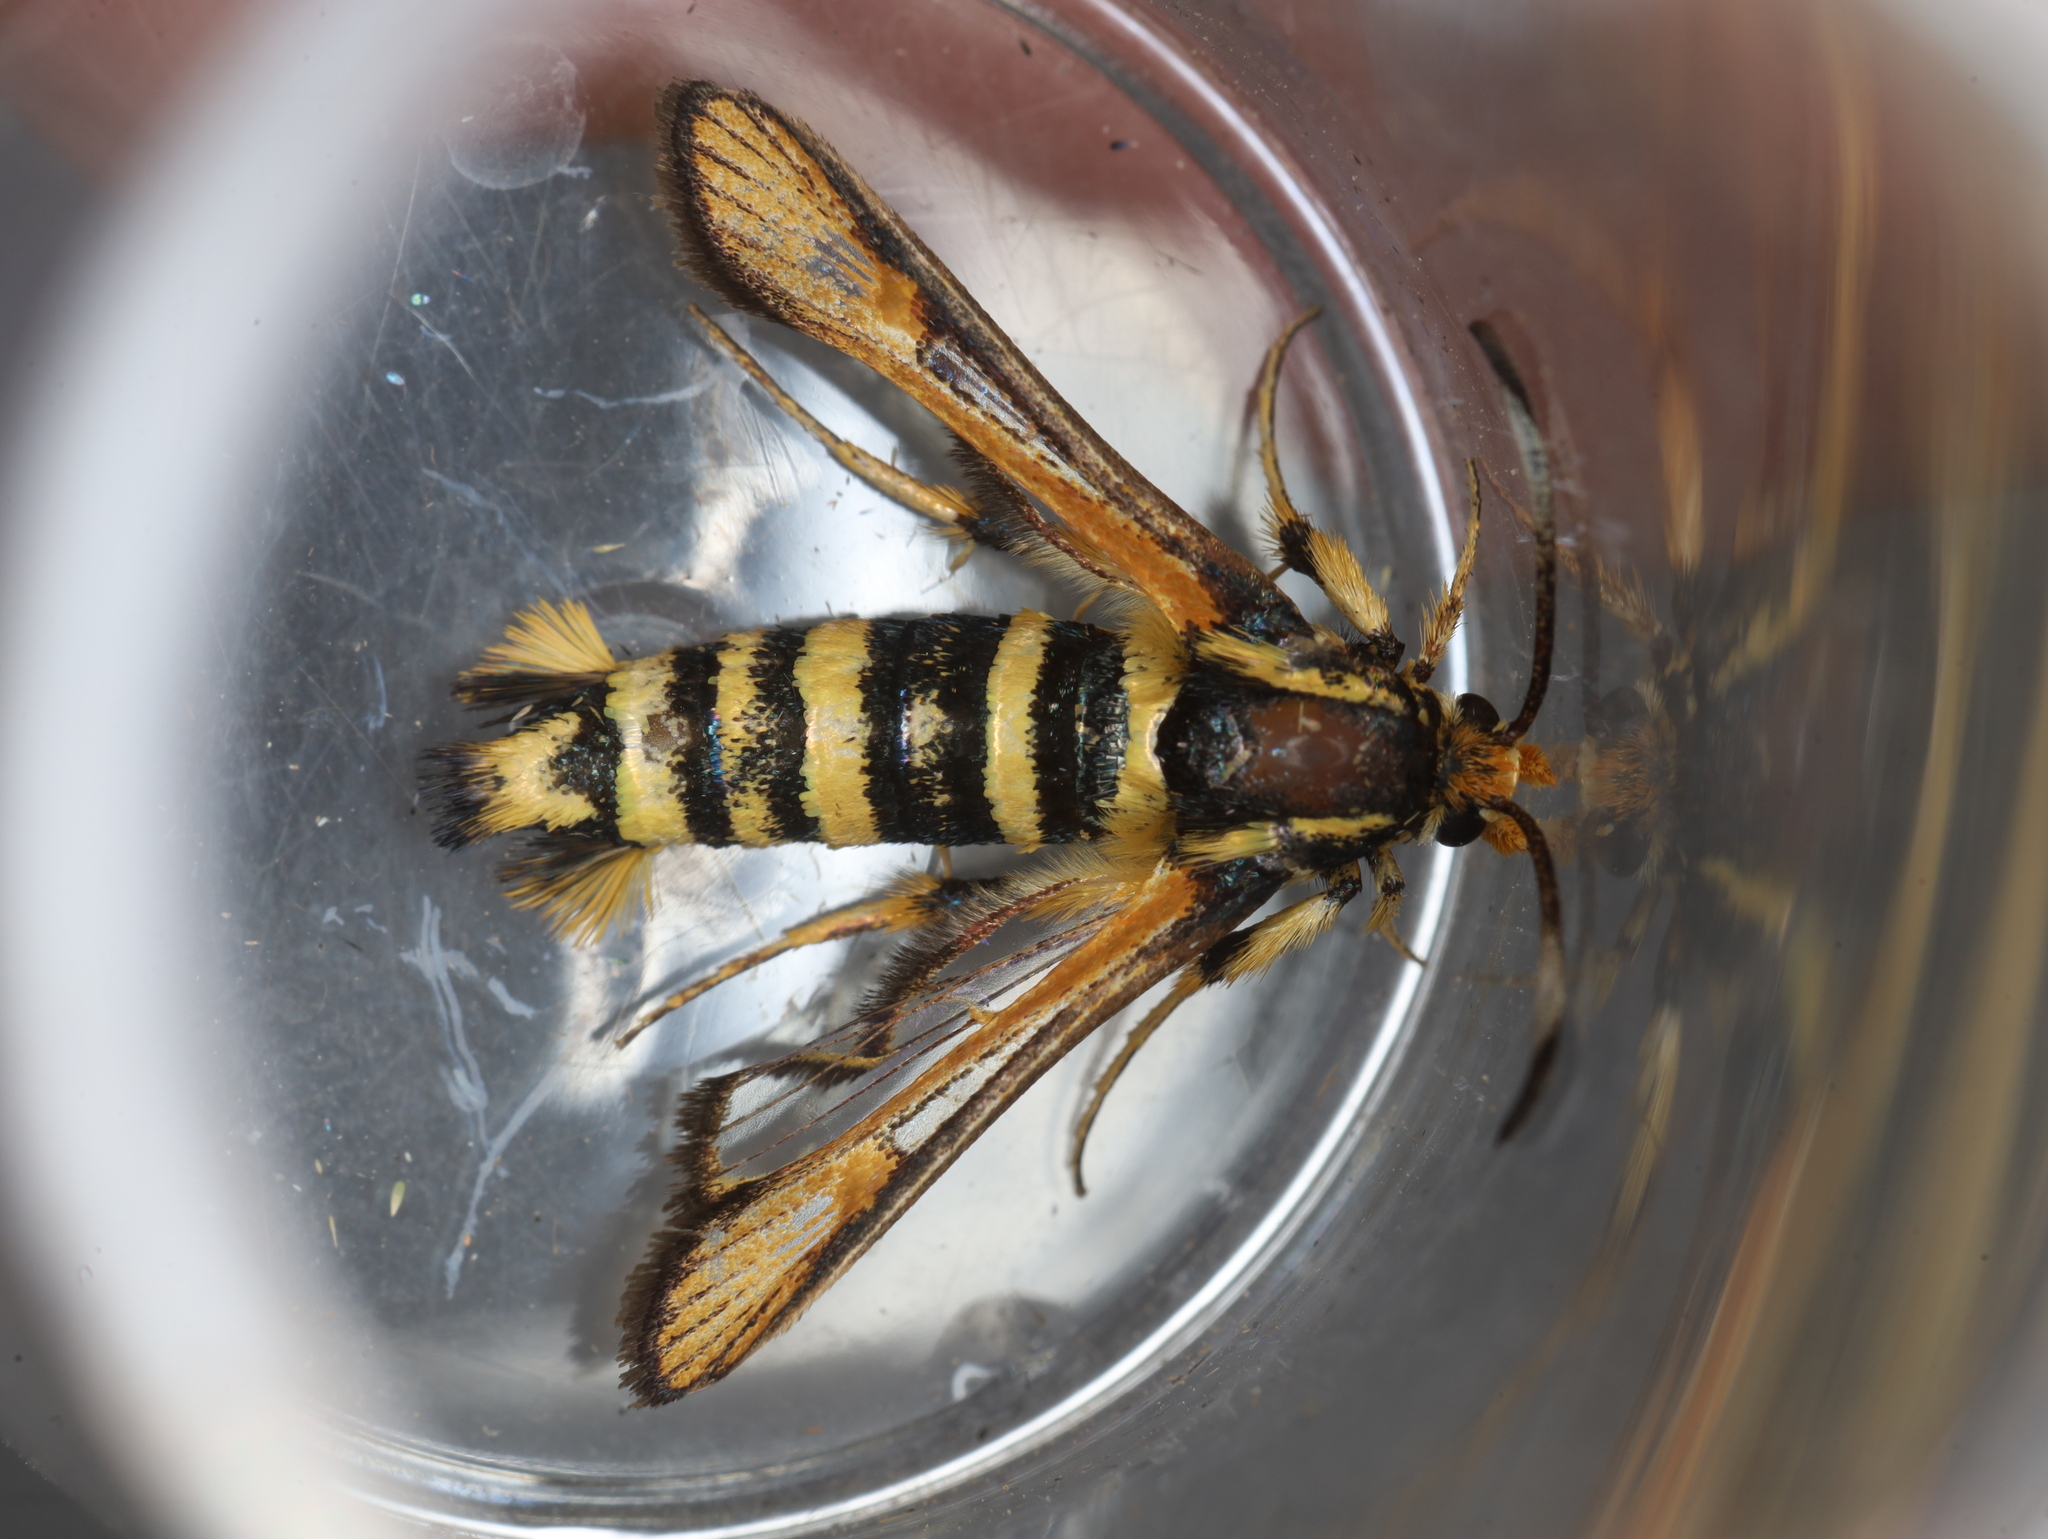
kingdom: Animalia
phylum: Arthropoda
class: Insecta
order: Lepidoptera
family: Sesiidae
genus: Bembecia
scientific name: Bembecia uroceriformis
